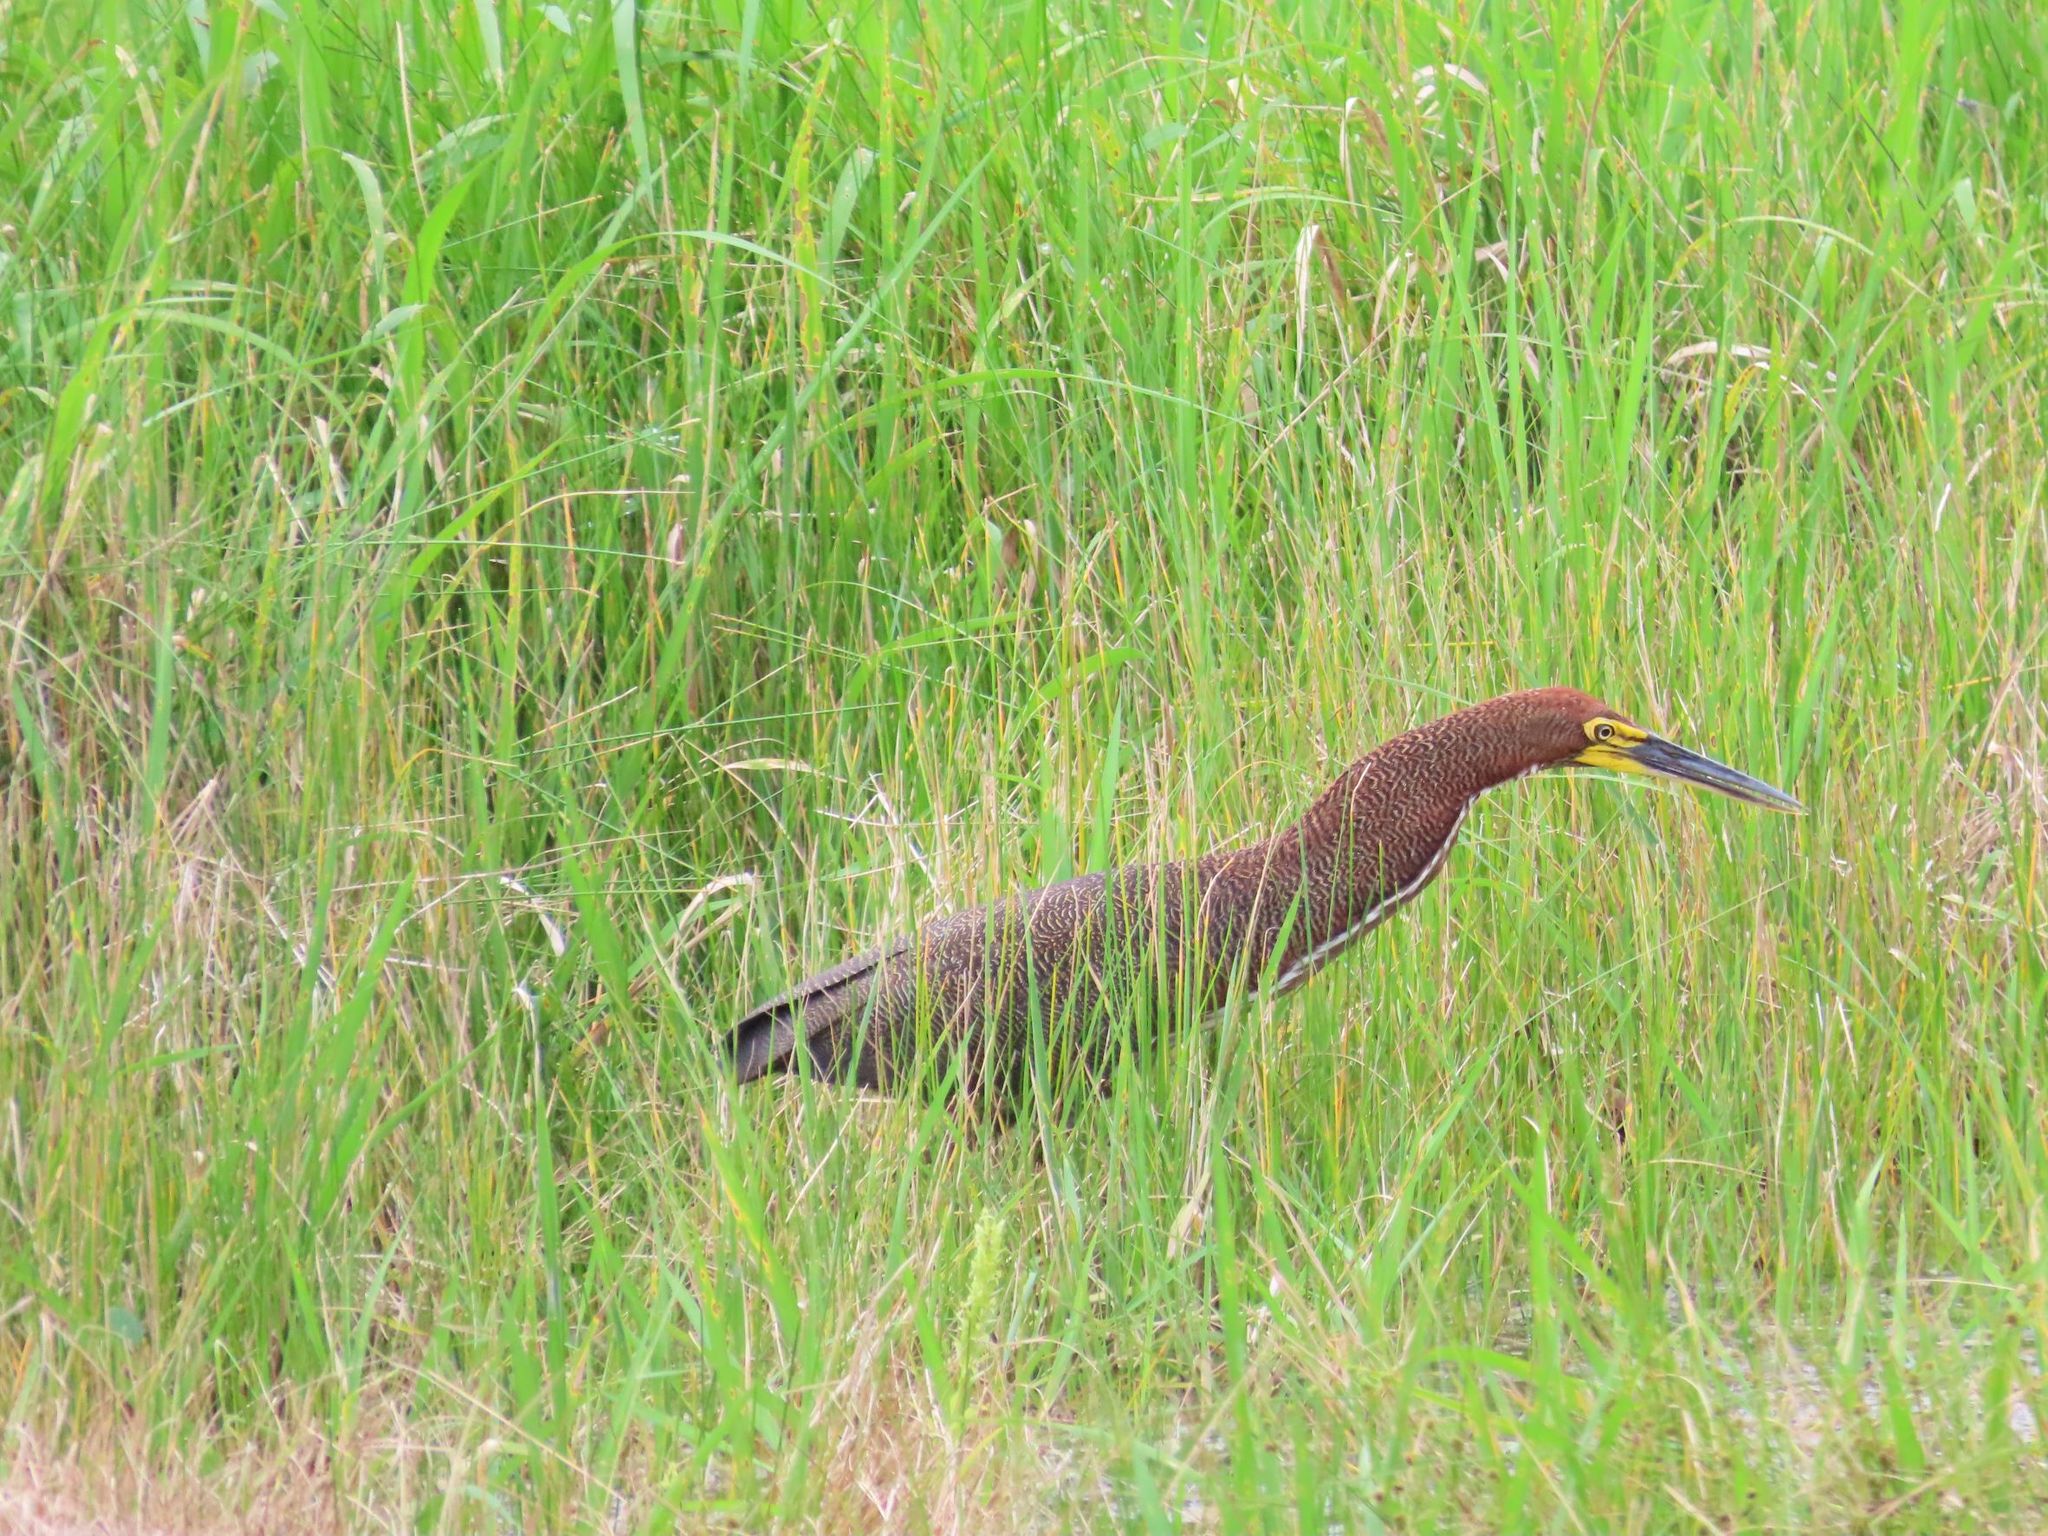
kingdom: Animalia
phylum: Chordata
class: Aves
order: Pelecaniformes
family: Ardeidae
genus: Tigrisoma
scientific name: Tigrisoma lineatum
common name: Rufescent tiger-heron
